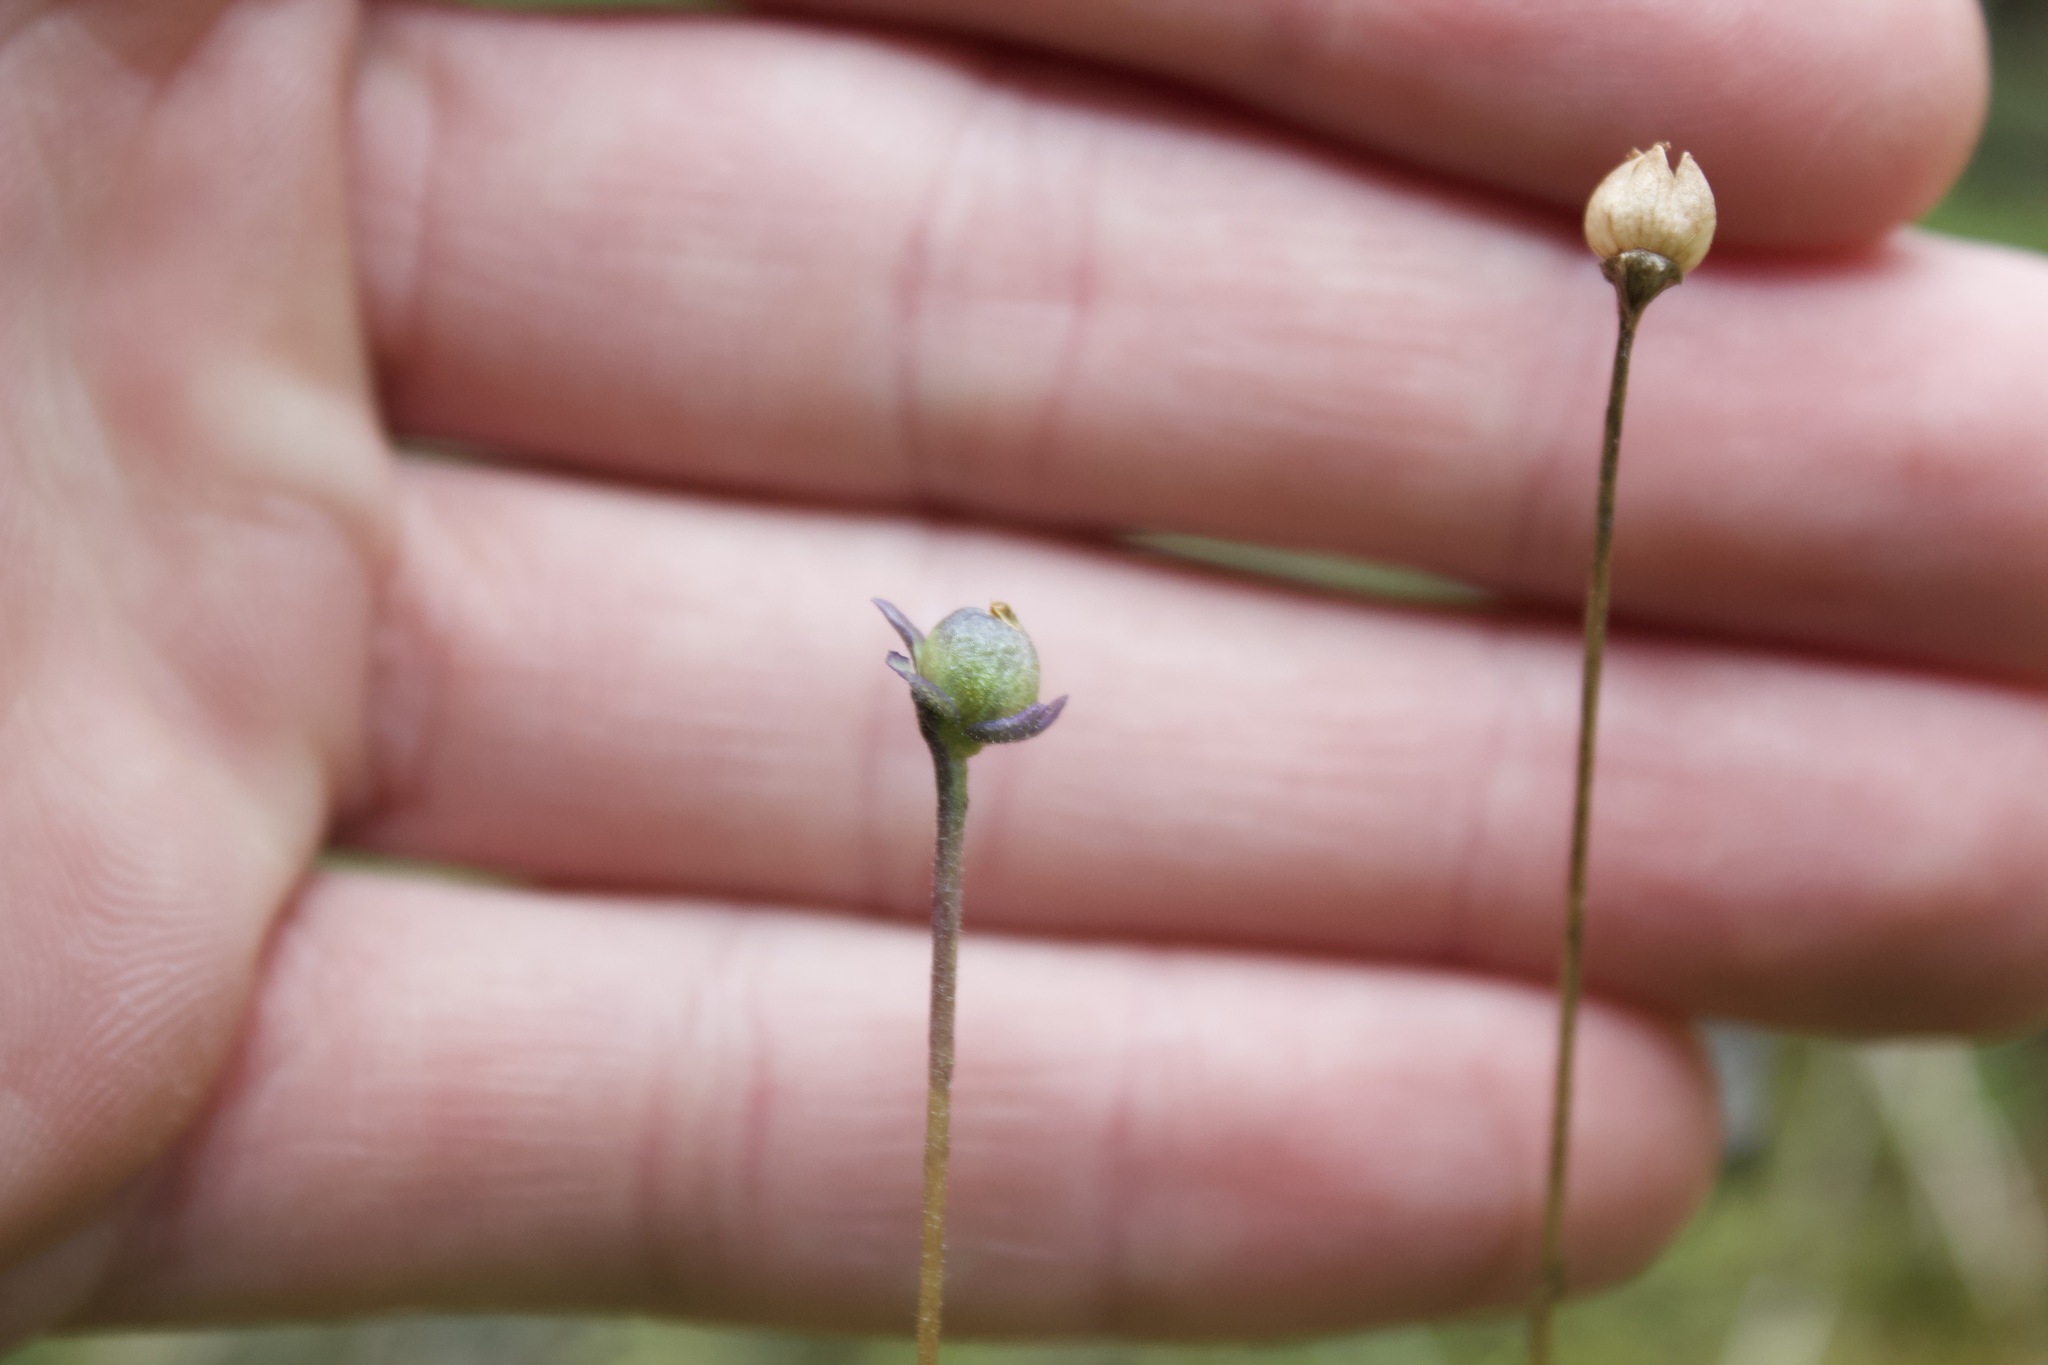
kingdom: Plantae
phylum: Tracheophyta
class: Magnoliopsida
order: Lamiales
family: Lentibulariaceae
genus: Pinguicula
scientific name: Pinguicula vulgaris
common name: Common butterwort
